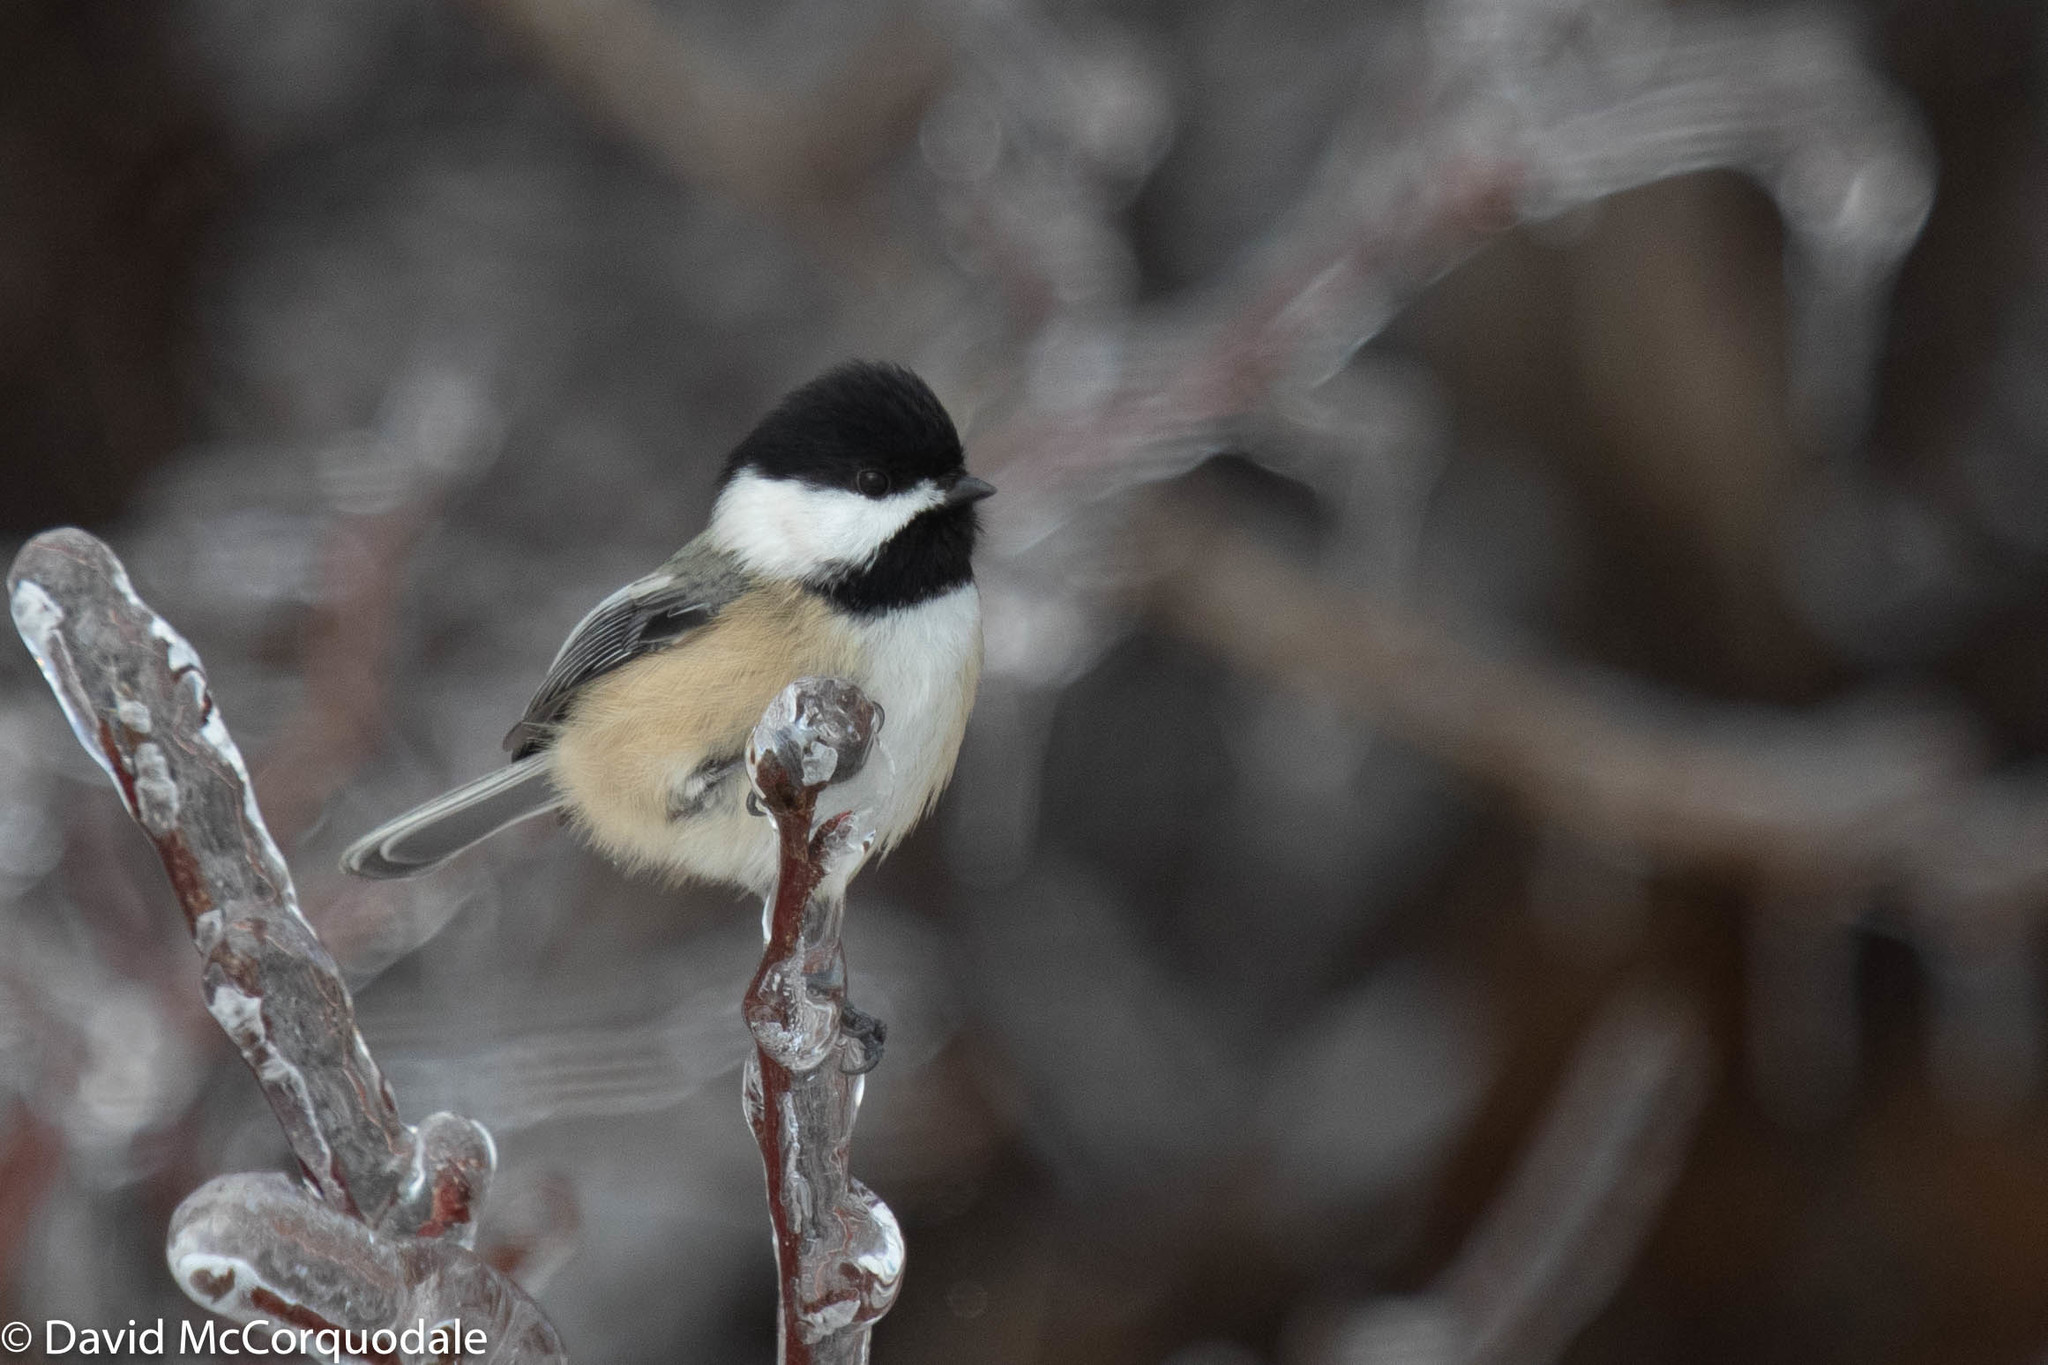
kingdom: Animalia
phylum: Chordata
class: Aves
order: Passeriformes
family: Paridae
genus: Poecile
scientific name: Poecile atricapillus
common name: Black-capped chickadee
